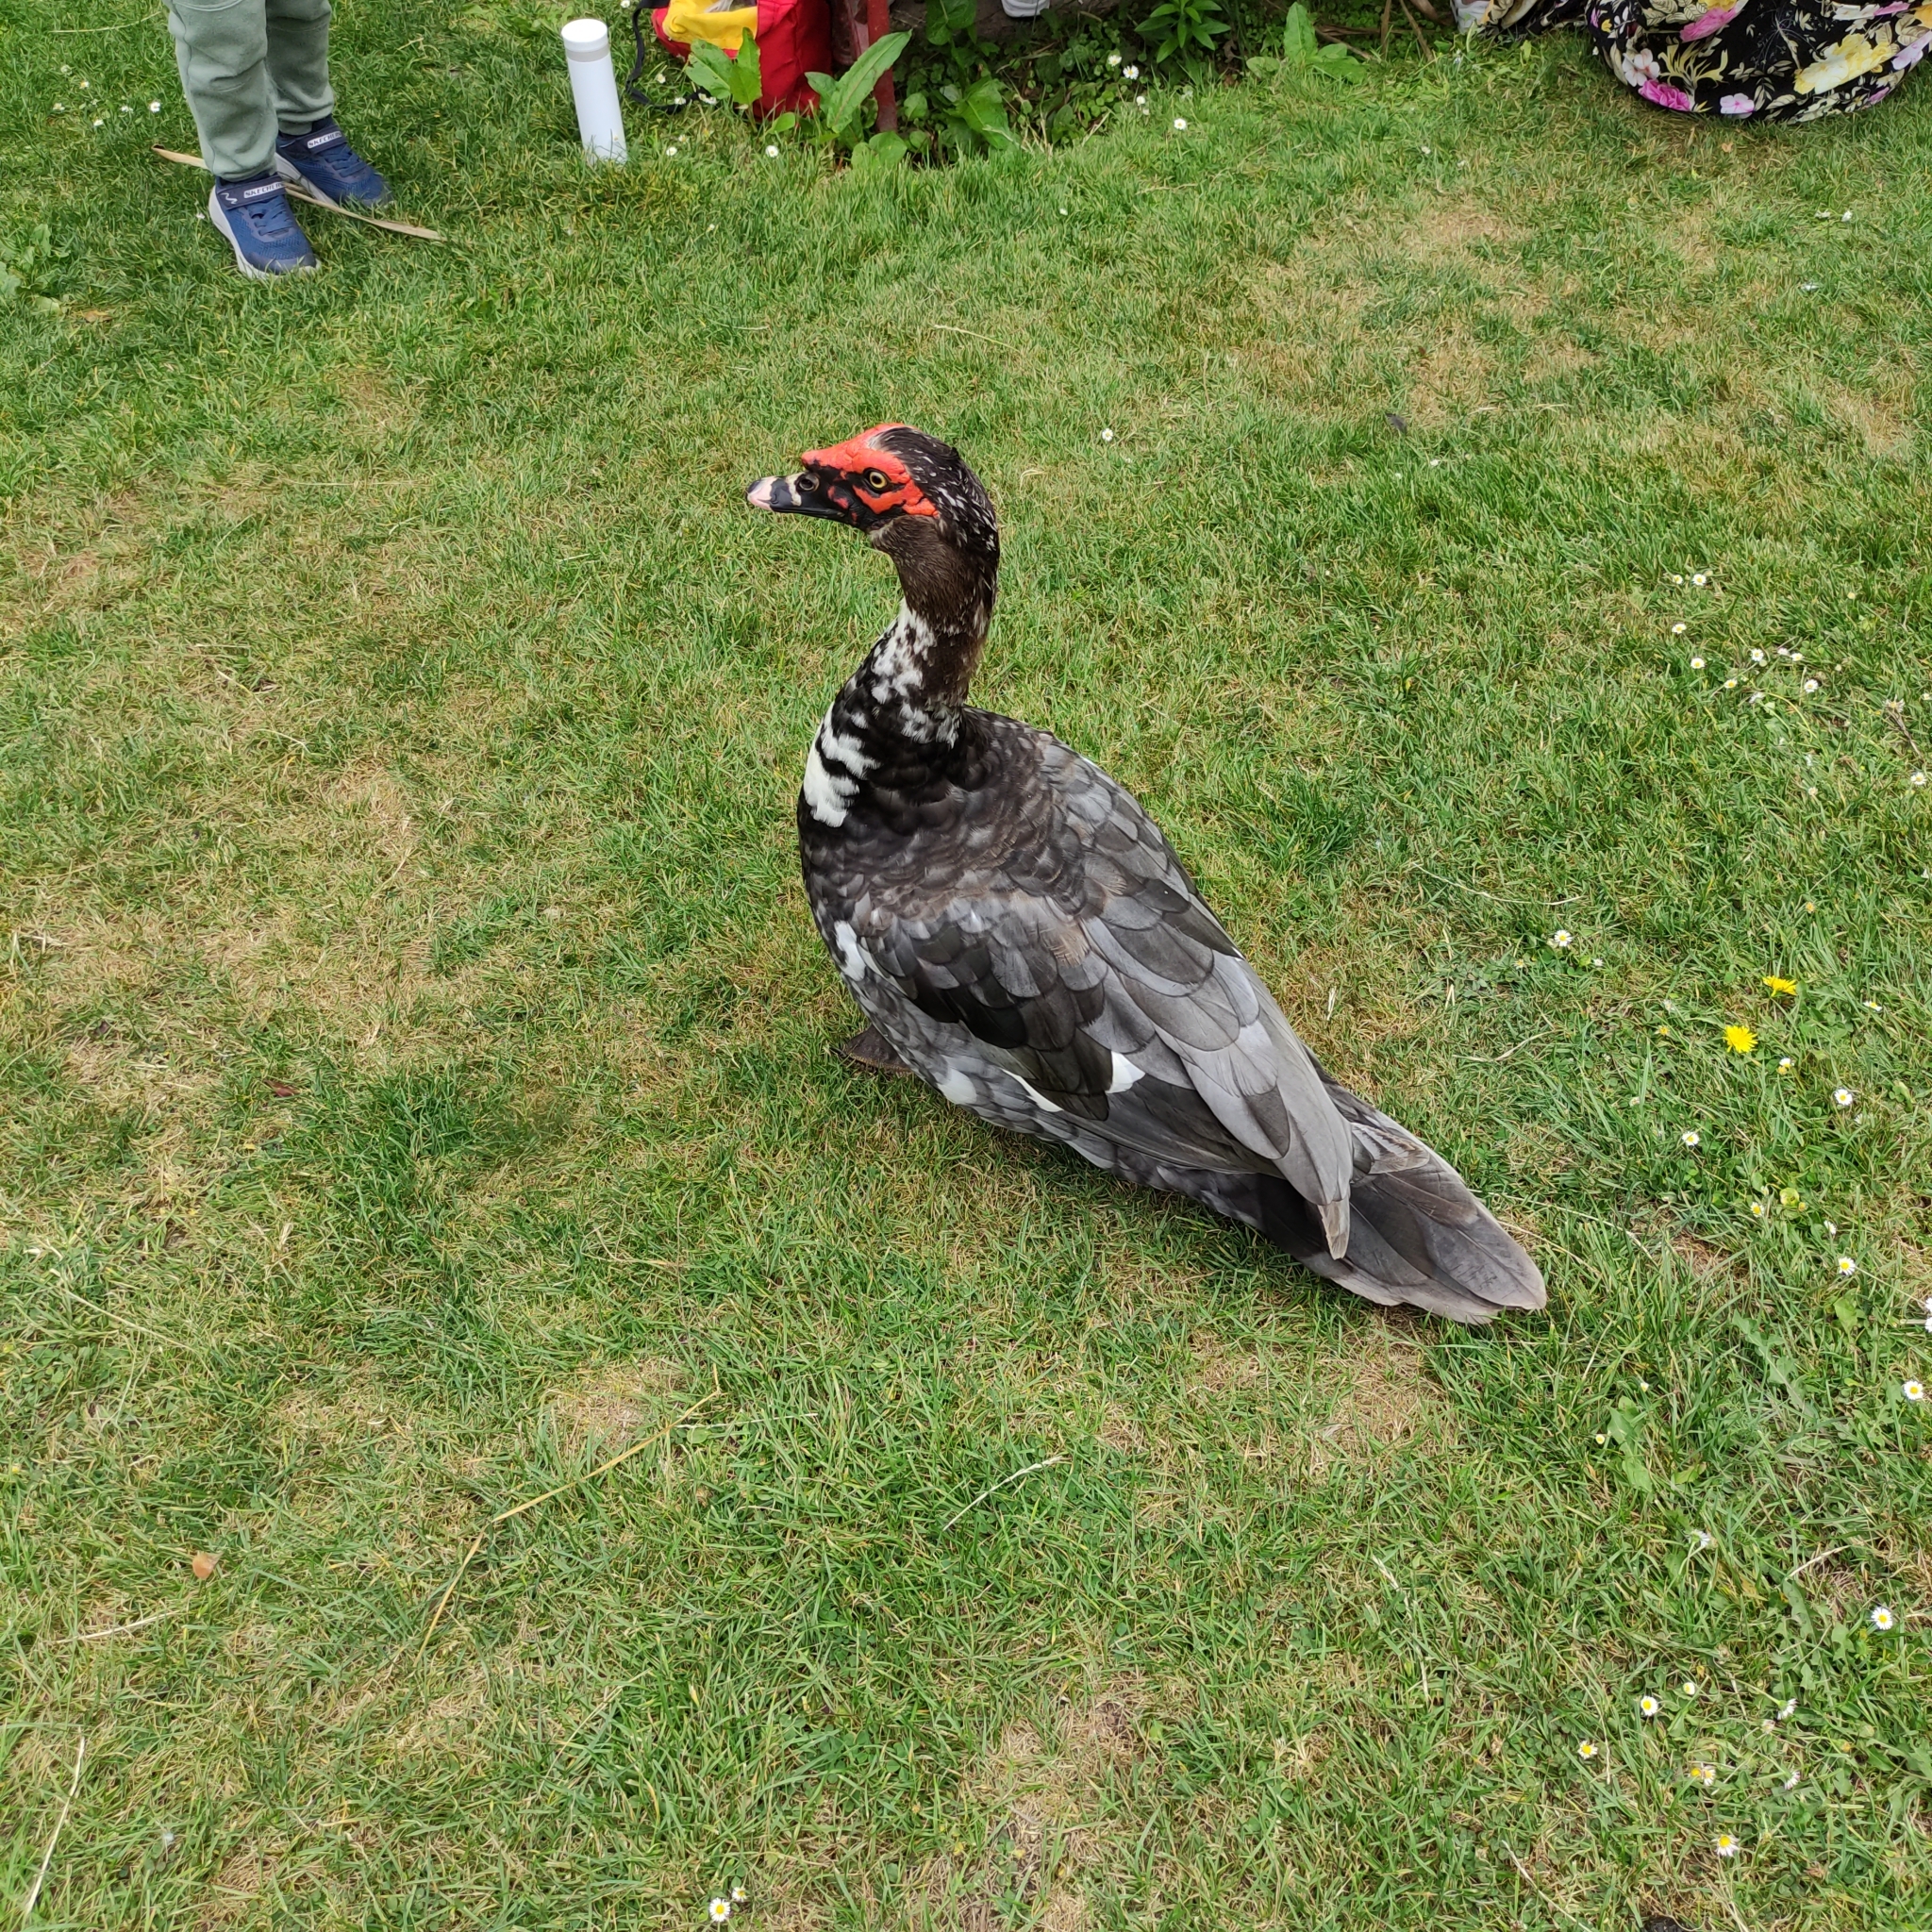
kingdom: Animalia
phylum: Chordata
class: Aves
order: Anseriformes
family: Anatidae
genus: Cairina
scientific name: Cairina moschata
